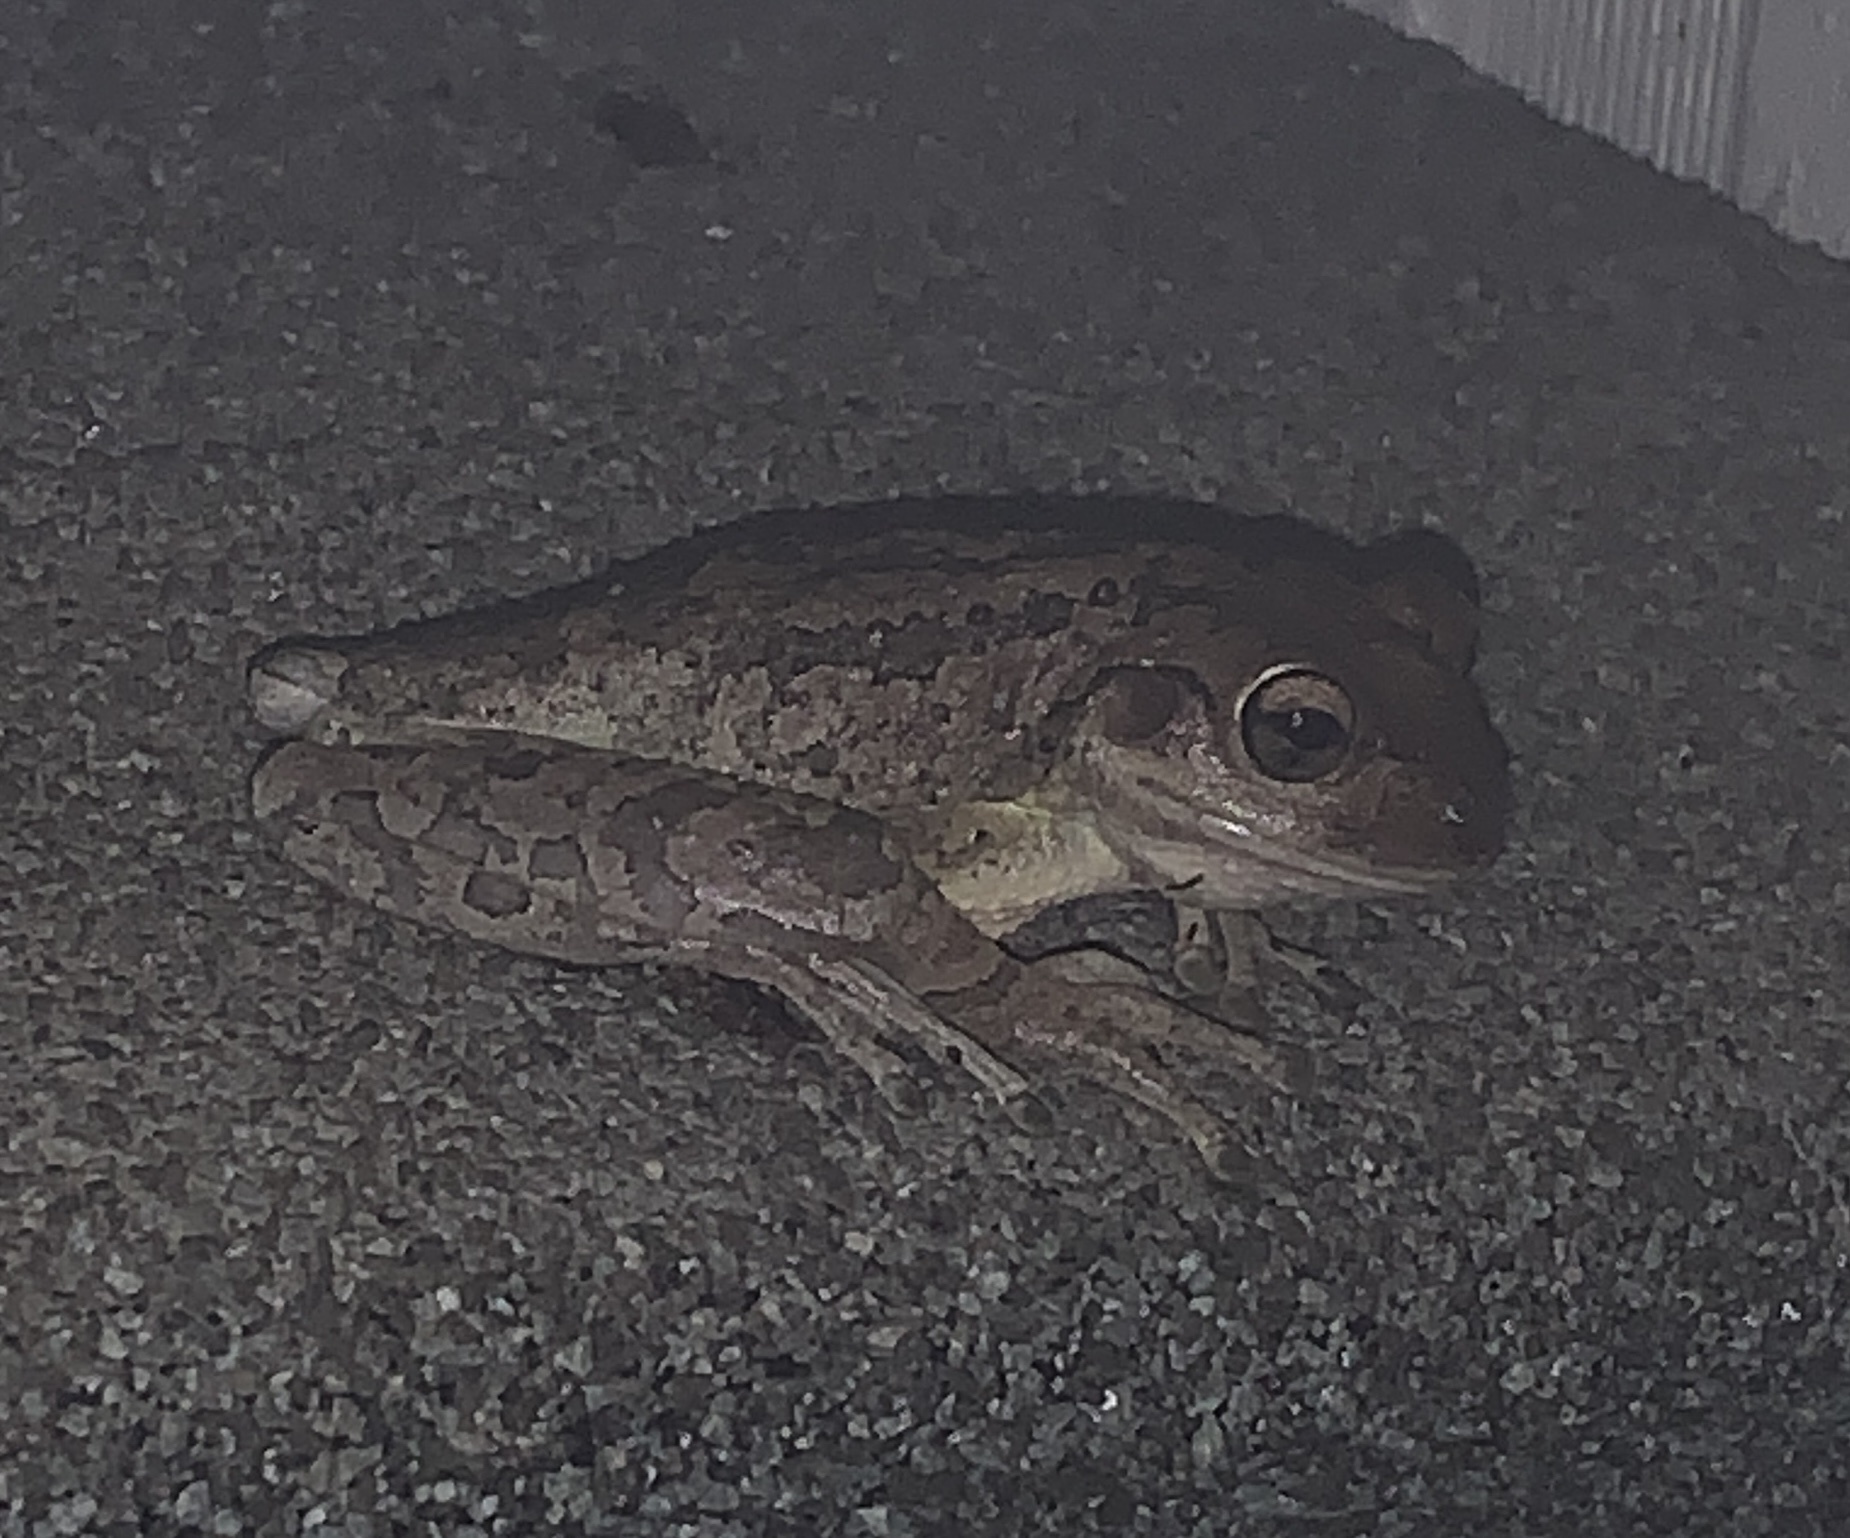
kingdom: Animalia
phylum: Chordata
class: Amphibia
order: Anura
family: Hylidae
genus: Osteopilus
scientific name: Osteopilus septentrionalis
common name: Cuban treefrog
